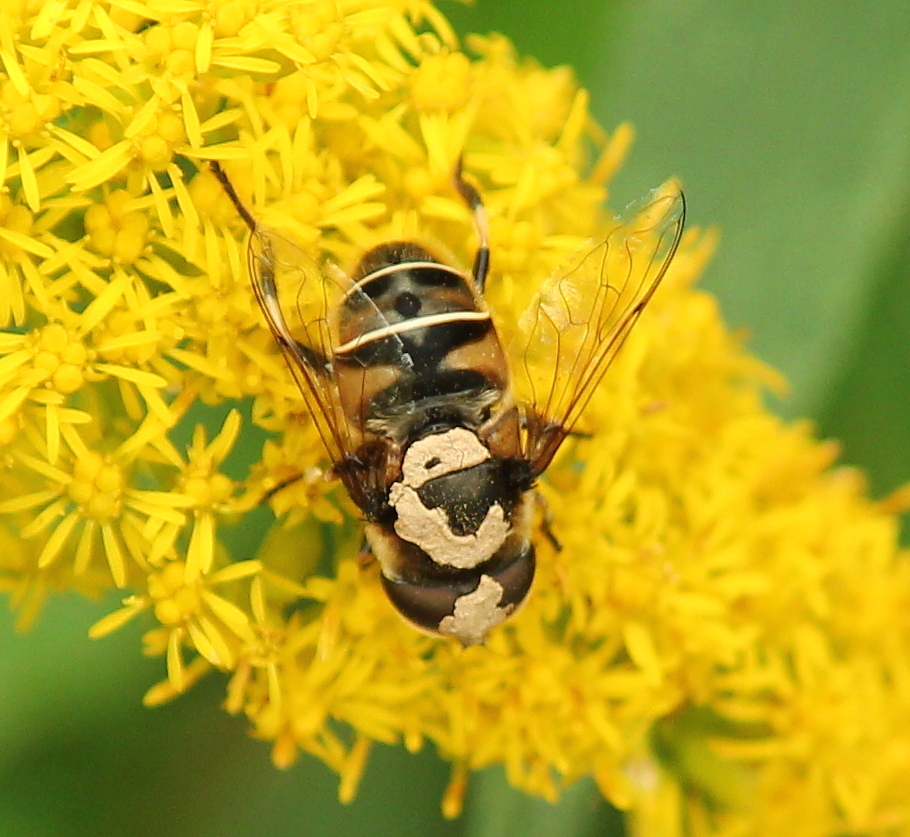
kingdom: Animalia
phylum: Arthropoda
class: Insecta
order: Diptera
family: Syrphidae
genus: Eristalis
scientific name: Eristalis dimidiata
